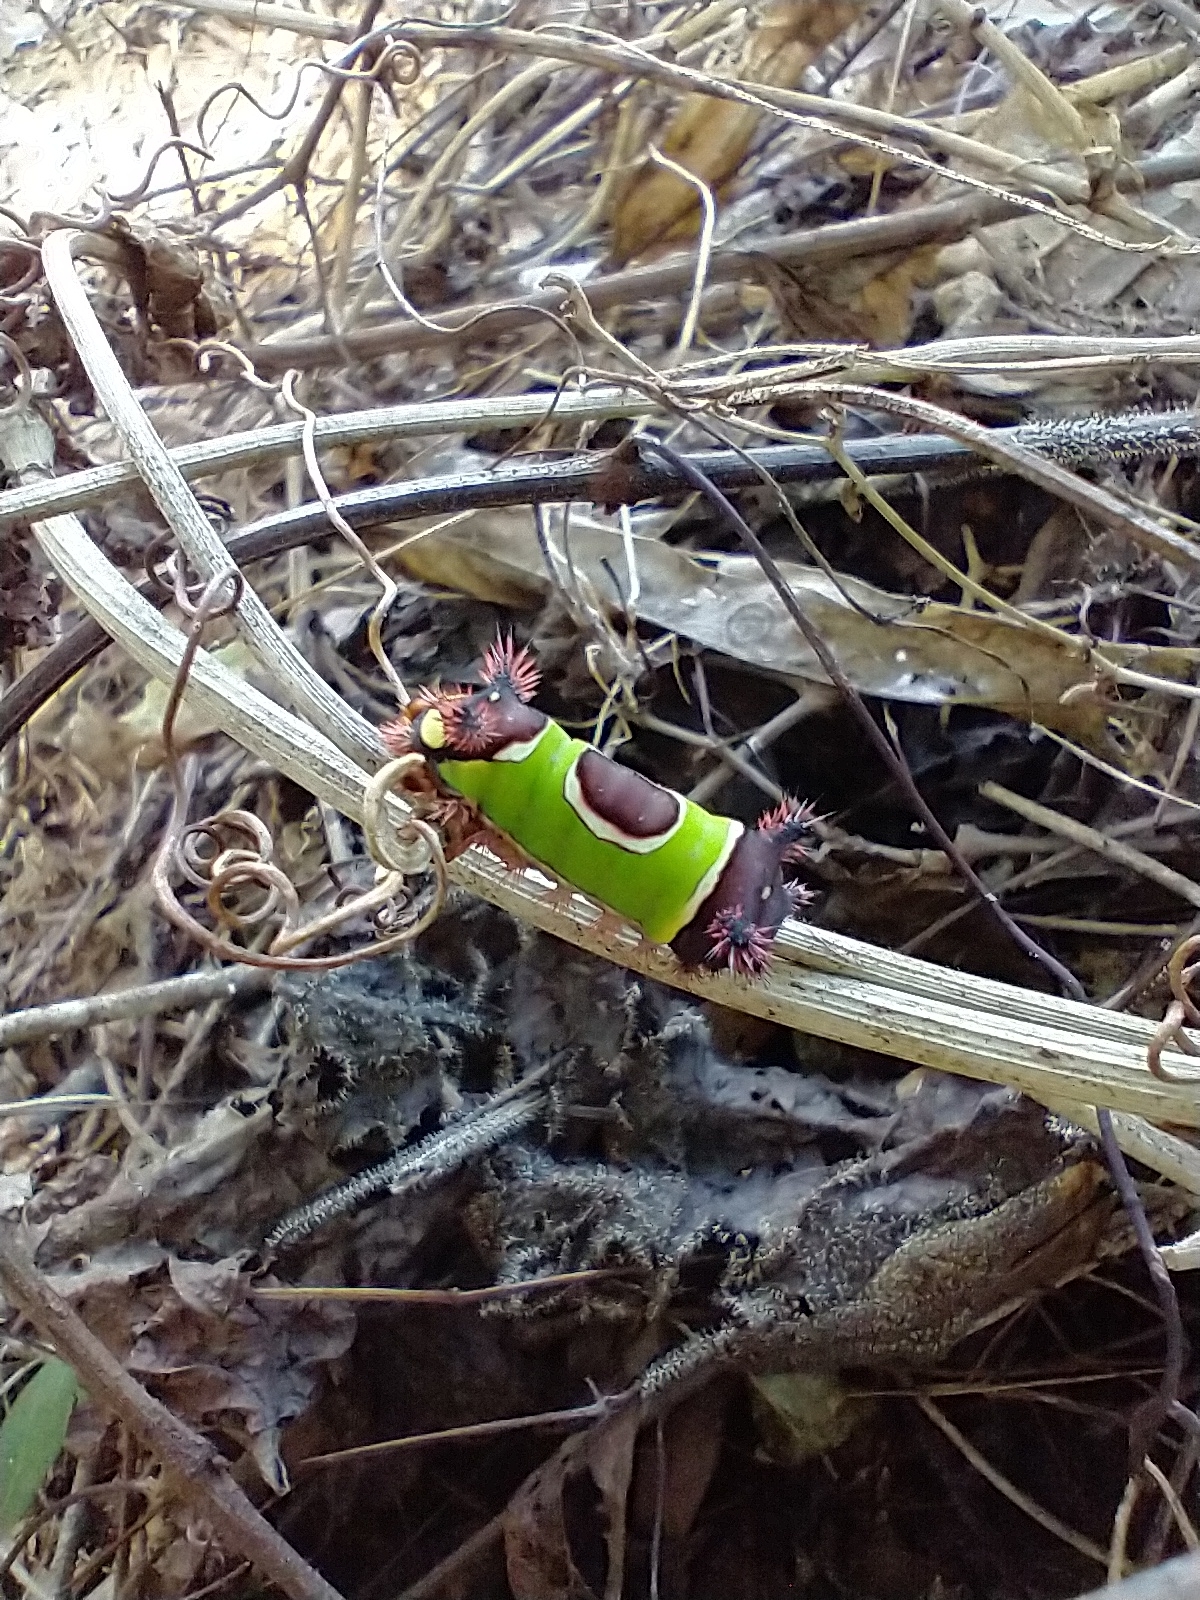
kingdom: Animalia
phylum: Arthropoda
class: Insecta
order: Lepidoptera
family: Limacodidae
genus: Acharia
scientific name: Acharia stimulea
